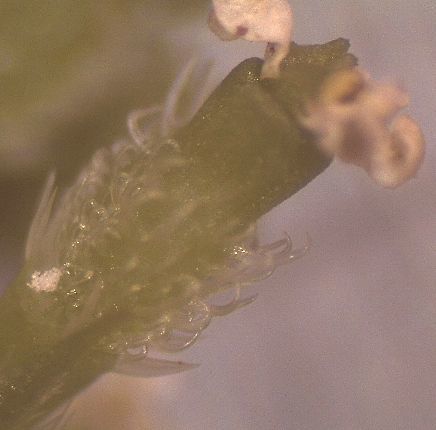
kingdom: Plantae
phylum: Tracheophyta
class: Magnoliopsida
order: Apiales
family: Apiaceae
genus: Anthriscus
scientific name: Anthriscus caucalis
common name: Bur chervil
